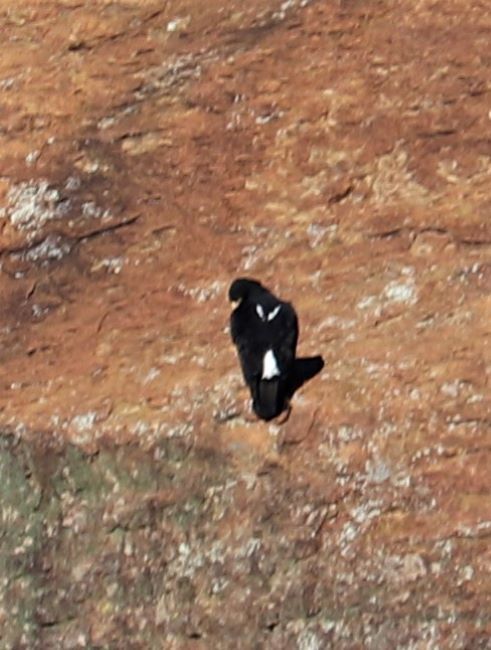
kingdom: Animalia
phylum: Chordata
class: Aves
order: Accipitriformes
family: Accipitridae
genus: Aquila
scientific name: Aquila verreauxii
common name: Verreaux's eagle
